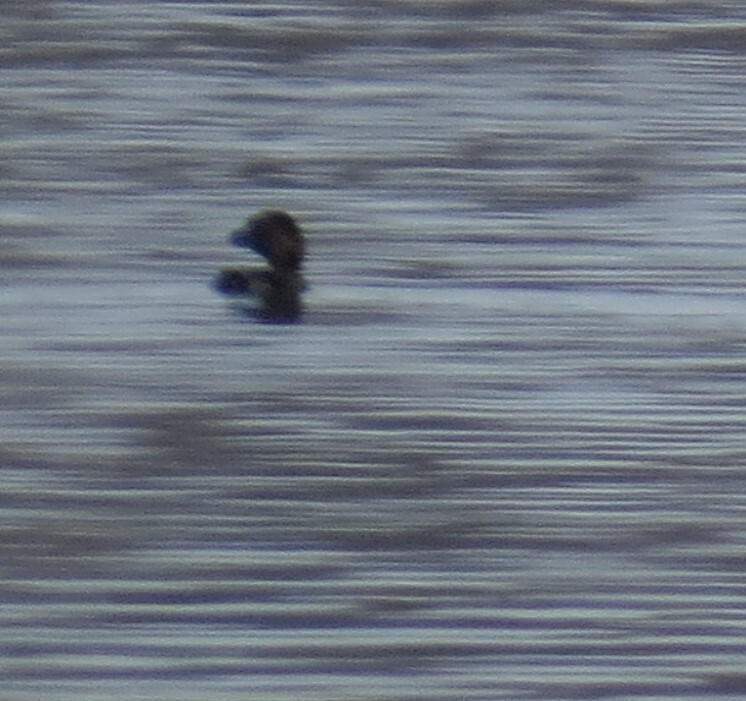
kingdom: Animalia
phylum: Chordata
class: Aves
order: Podicipediformes
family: Podicipedidae
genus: Podilymbus
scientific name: Podilymbus podiceps
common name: Pied-billed grebe
